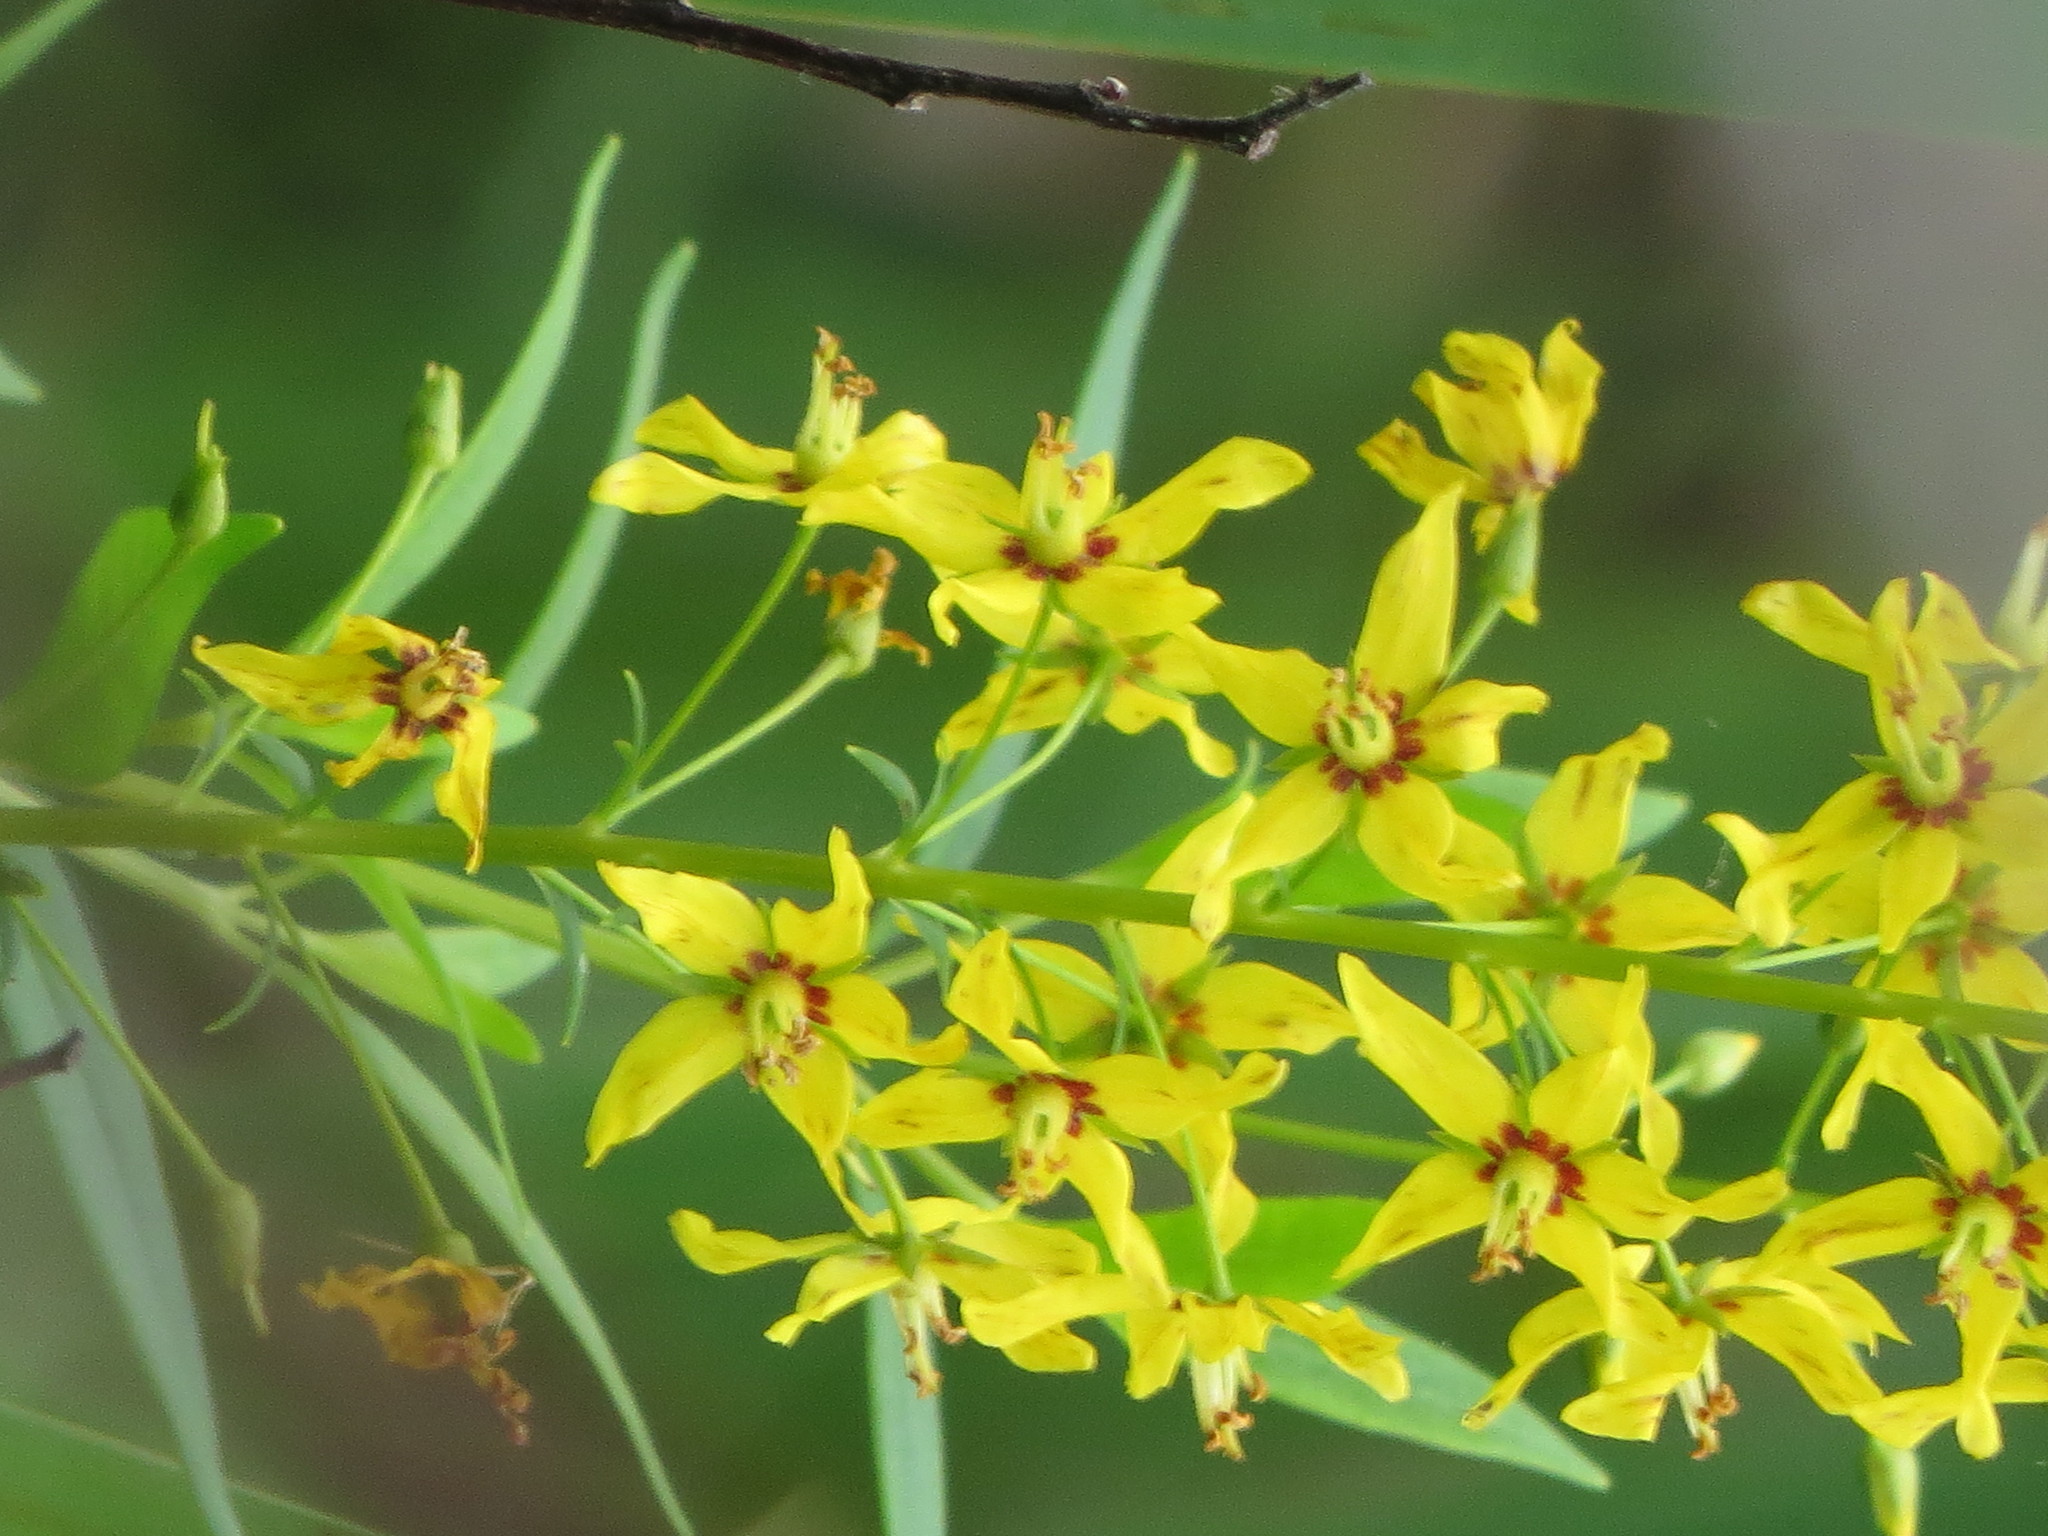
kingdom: Plantae
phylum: Tracheophyta
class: Magnoliopsida
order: Ericales
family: Primulaceae
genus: Lysimachia
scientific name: Lysimachia terrestris
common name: Lake loosestrife
